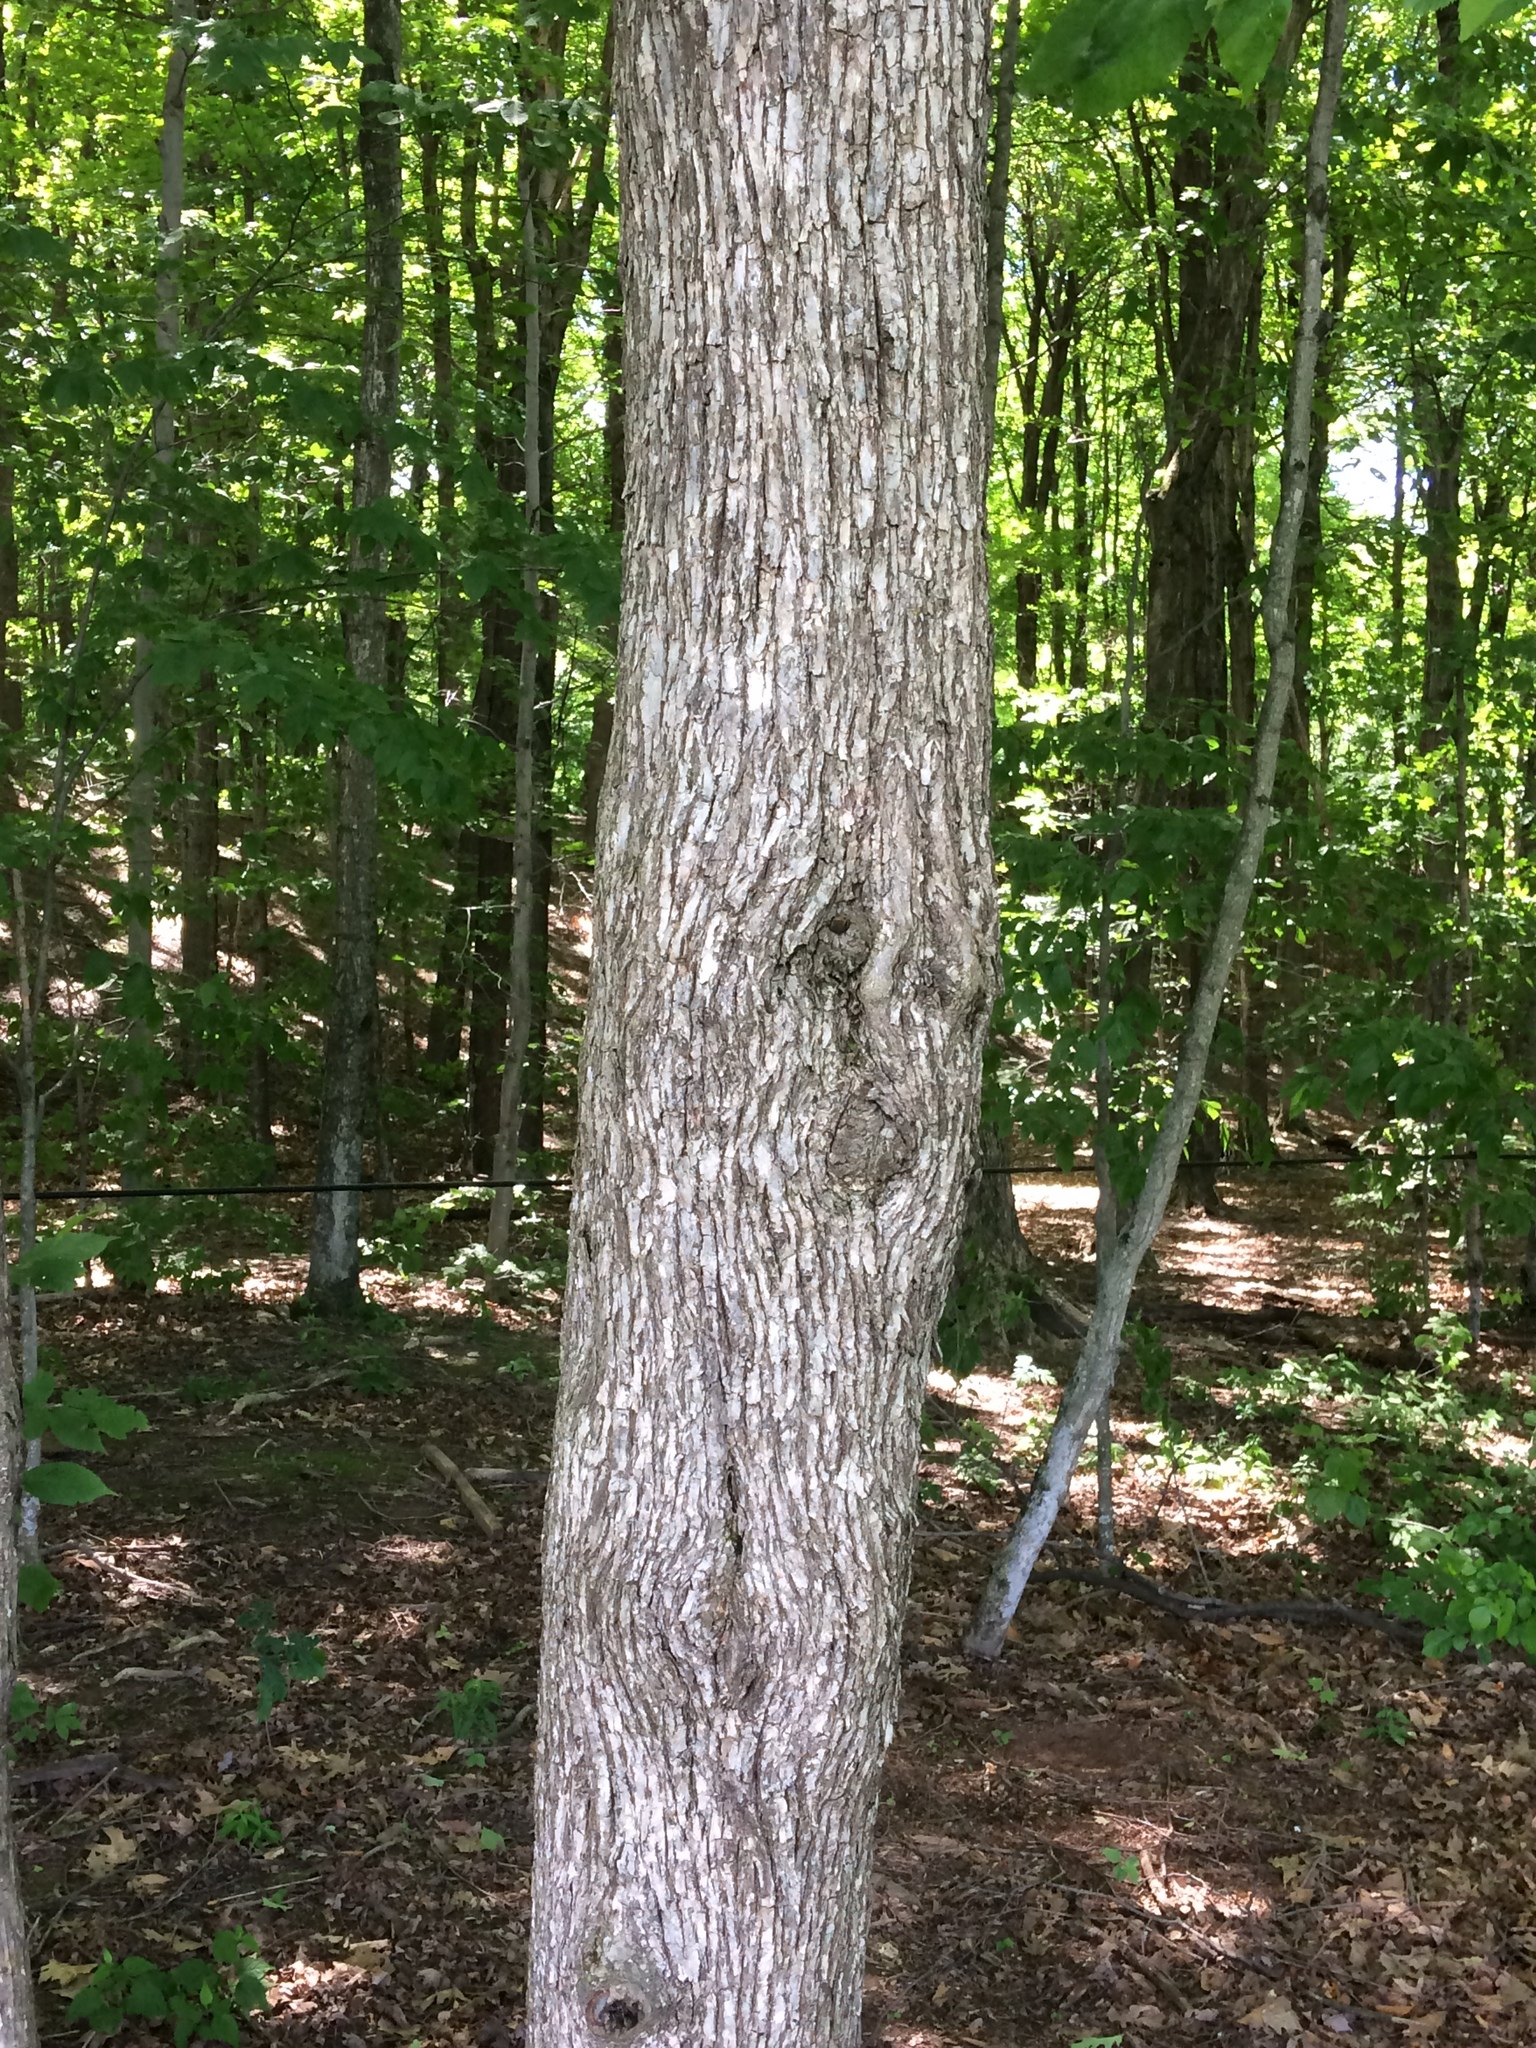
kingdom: Plantae
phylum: Tracheophyta
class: Magnoliopsida
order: Fagales
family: Betulaceae
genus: Ostrya
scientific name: Ostrya virginiana
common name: Ironwood
